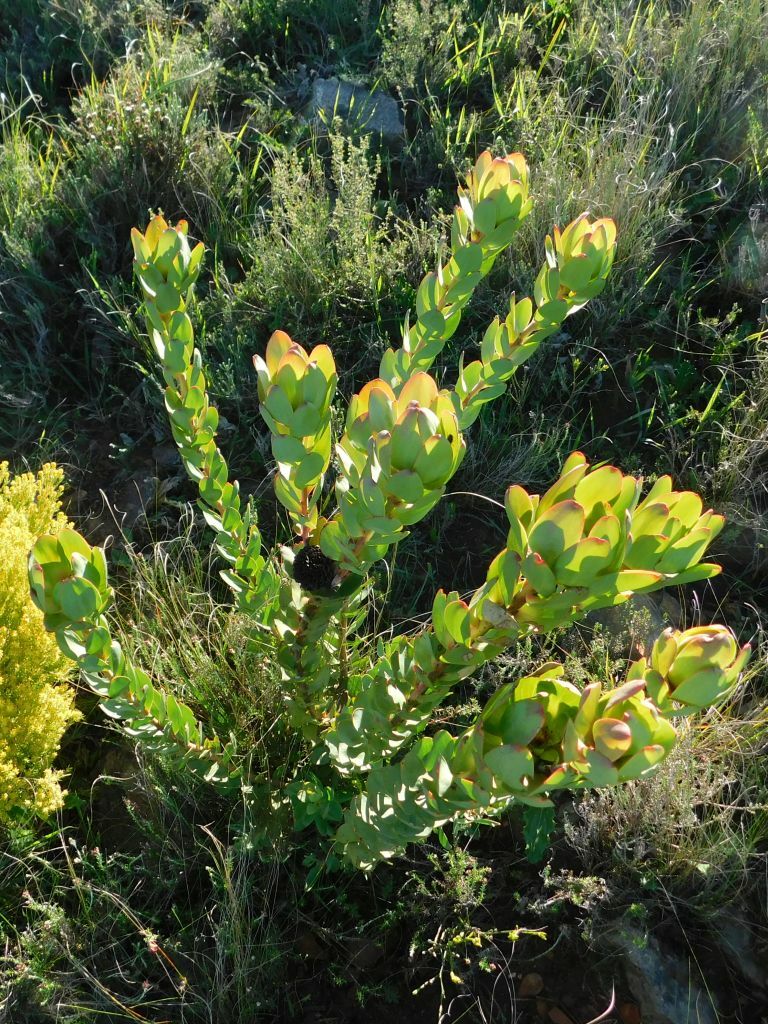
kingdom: Plantae
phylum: Tracheophyta
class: Magnoliopsida
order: Proteales
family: Proteaceae
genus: Leucadendron
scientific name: Leucadendron elimense
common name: Elim conebush
